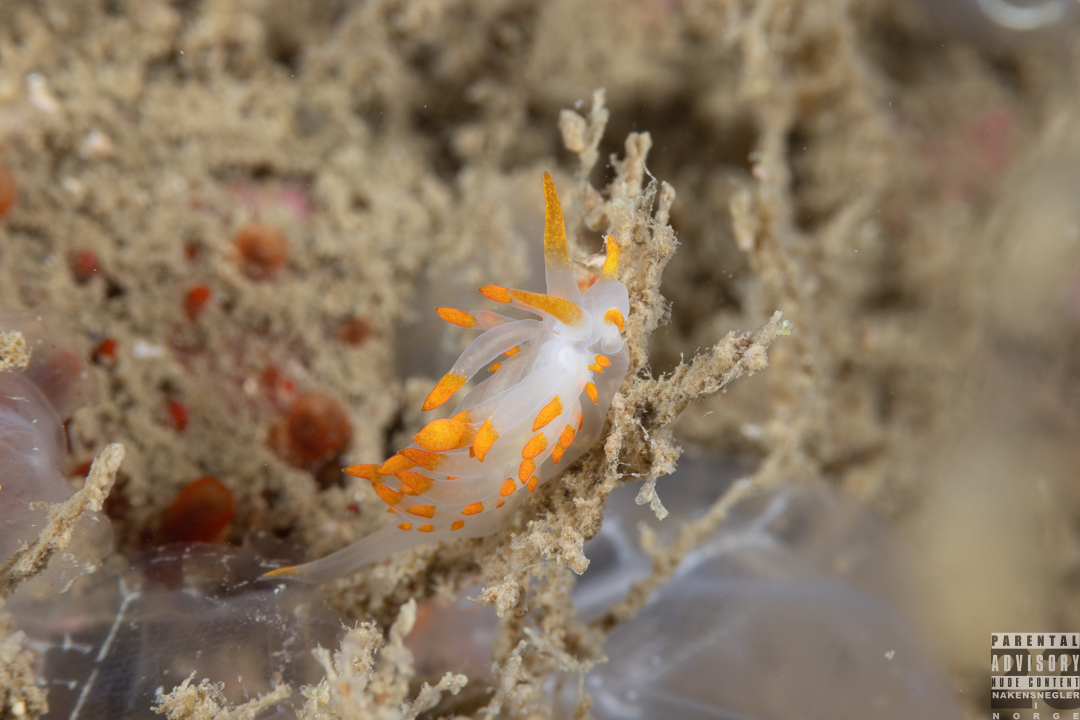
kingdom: Animalia
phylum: Mollusca
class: Gastropoda
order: Nudibranchia
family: Eubranchidae
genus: Amphorina
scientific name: Amphorina farrani
